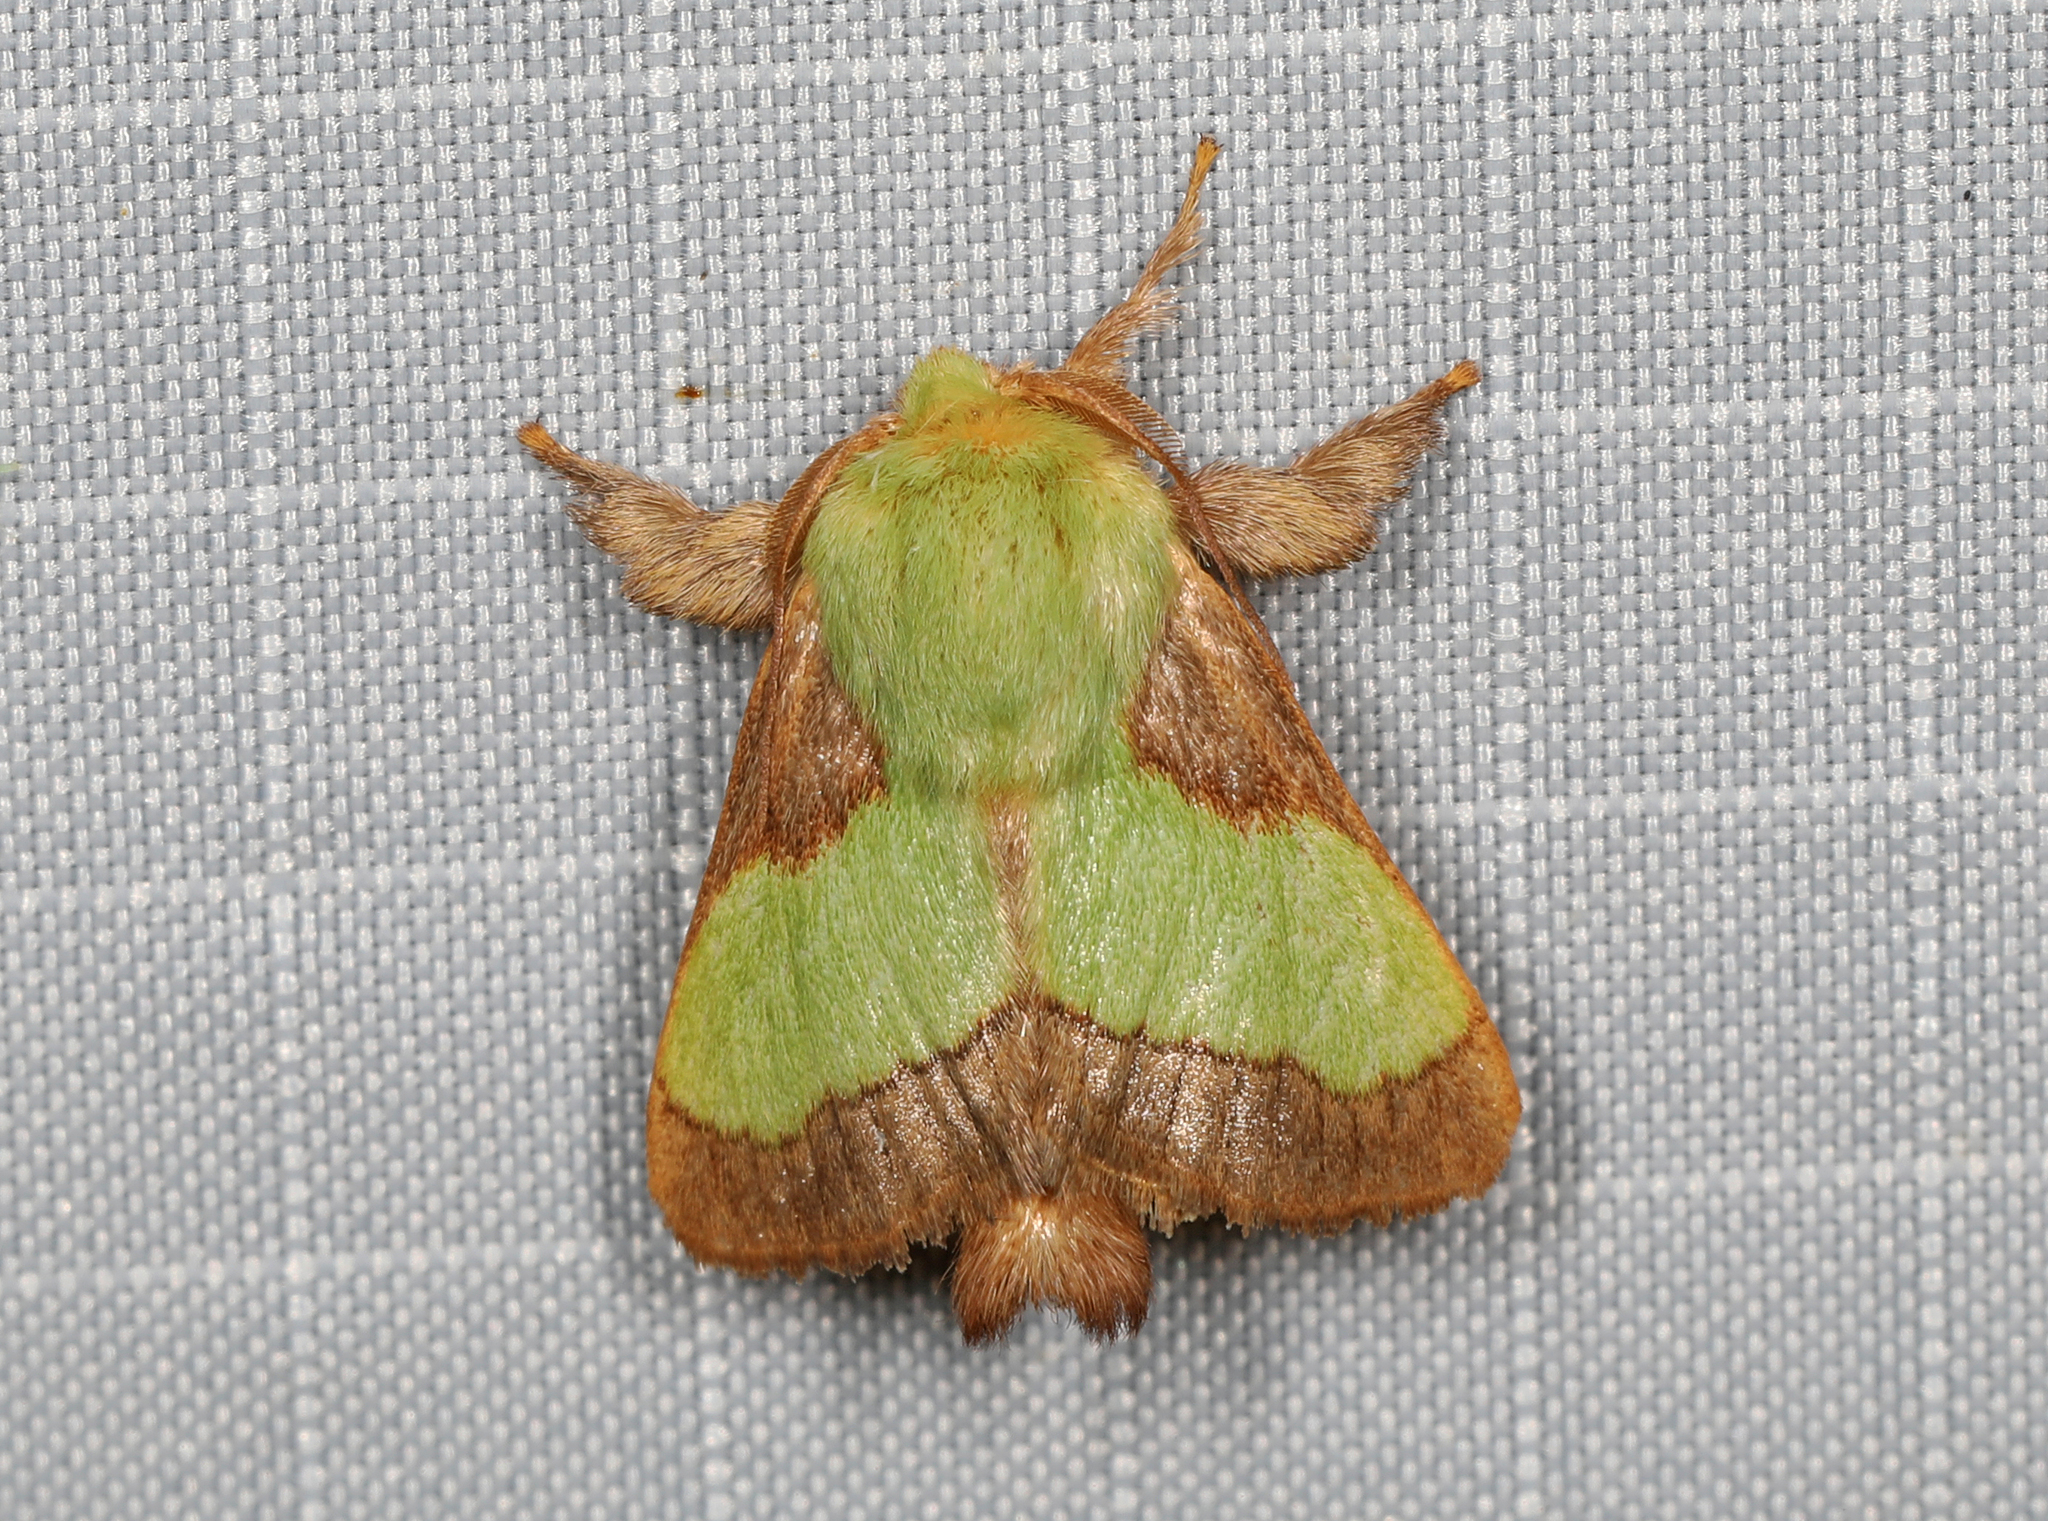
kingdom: Animalia
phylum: Arthropoda
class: Insecta
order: Lepidoptera
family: Limacodidae
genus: Parasa
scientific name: Parasa chloris
